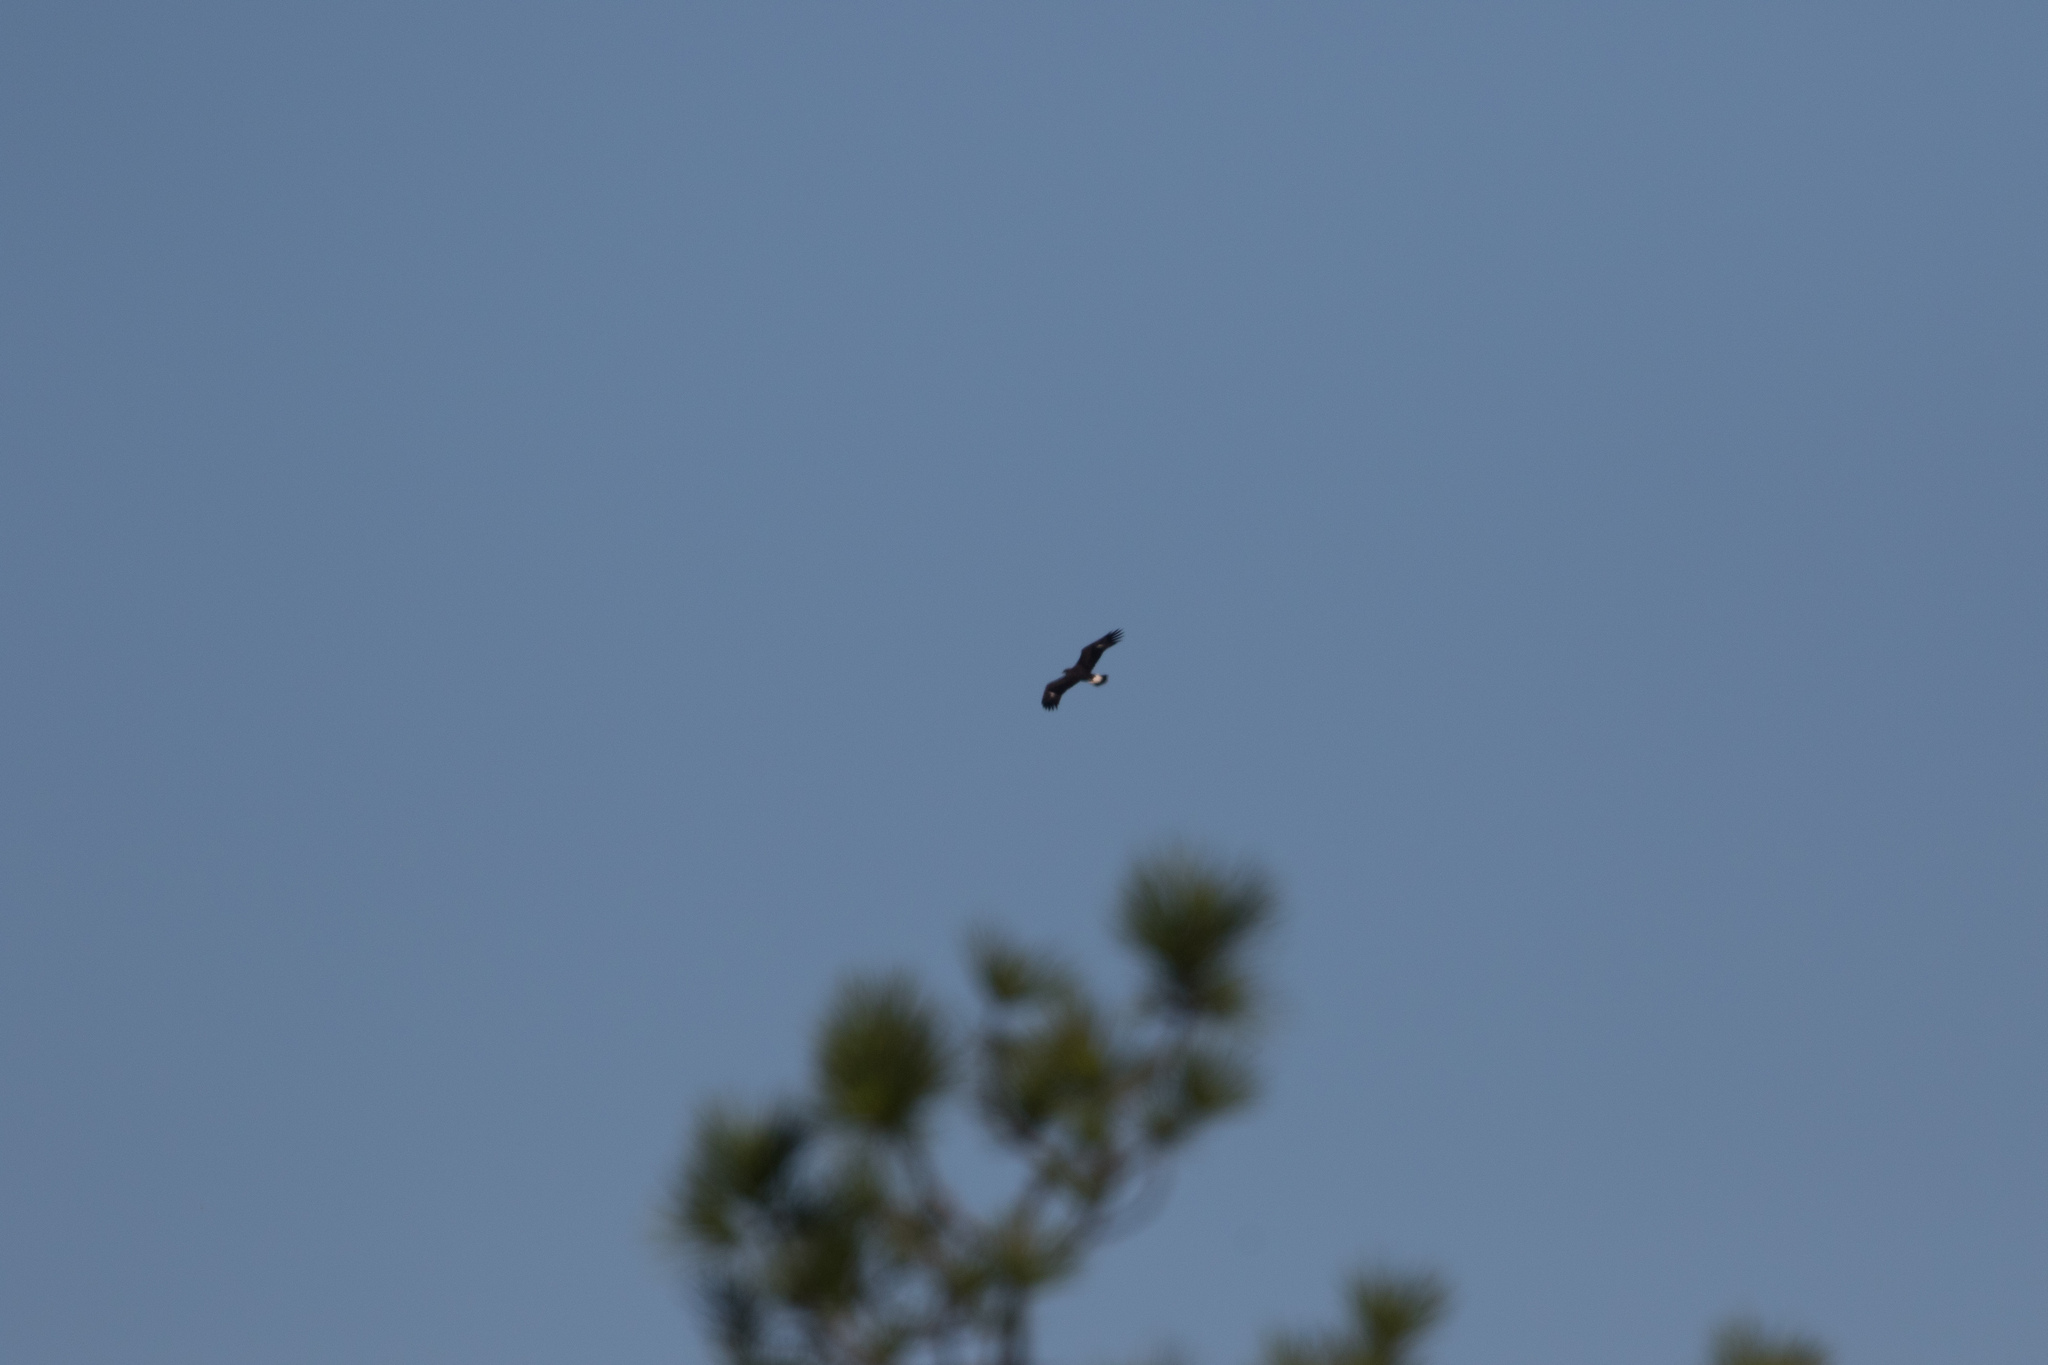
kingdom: Animalia
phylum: Chordata
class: Aves
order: Accipitriformes
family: Accipitridae
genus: Aquila
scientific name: Aquila chrysaetos
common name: Golden eagle
